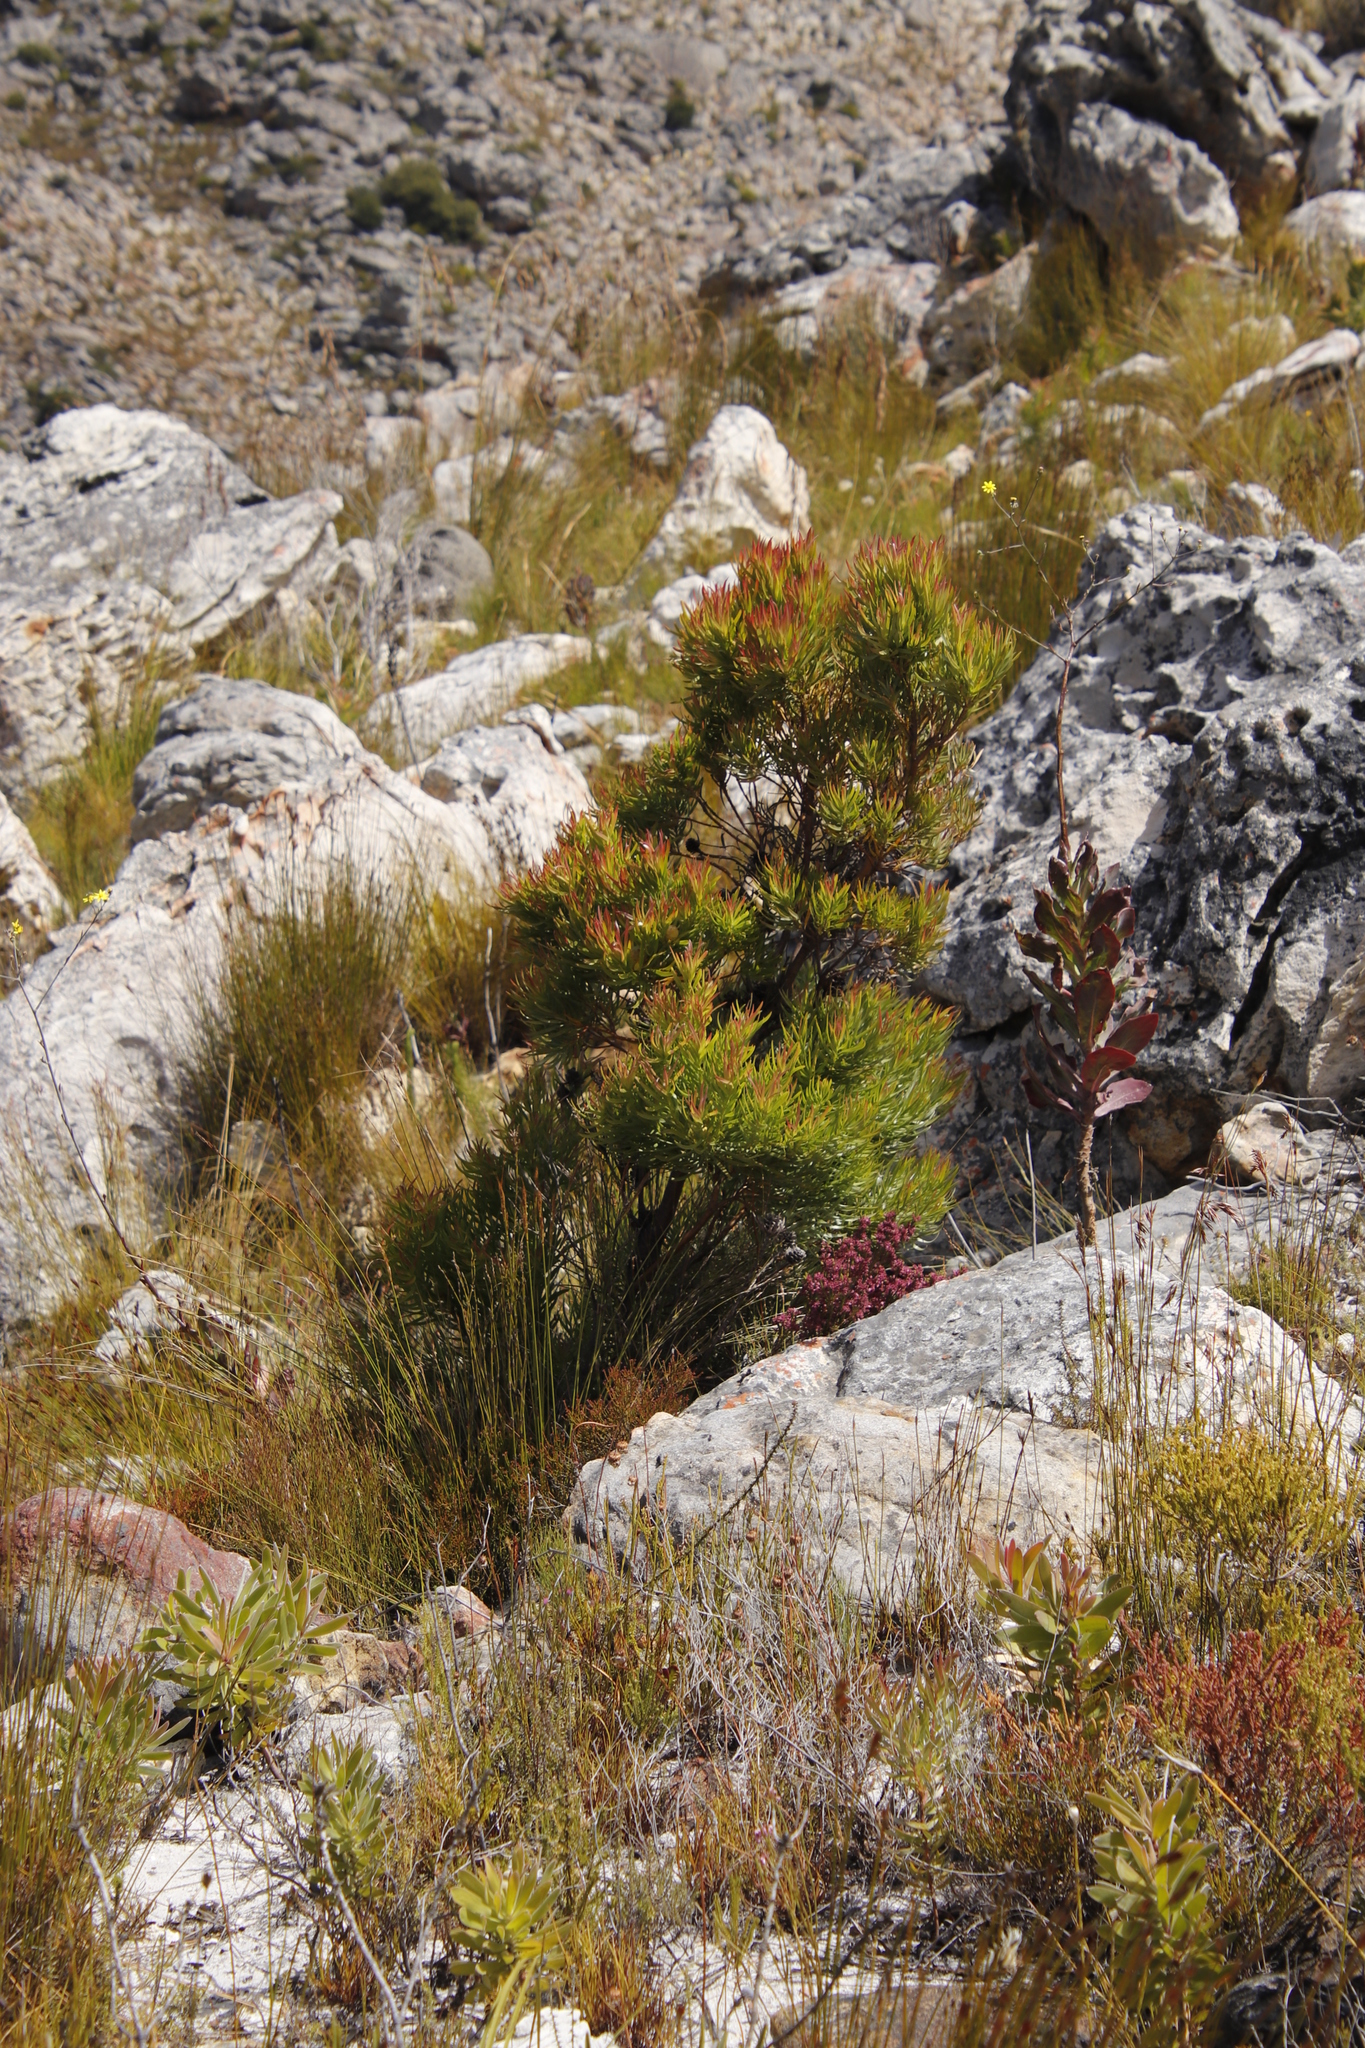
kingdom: Plantae
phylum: Tracheophyta
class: Magnoliopsida
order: Proteales
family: Proteaceae
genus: Leucadendron
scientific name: Leucadendron xanthoconus
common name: Sickle-leaf conebush
